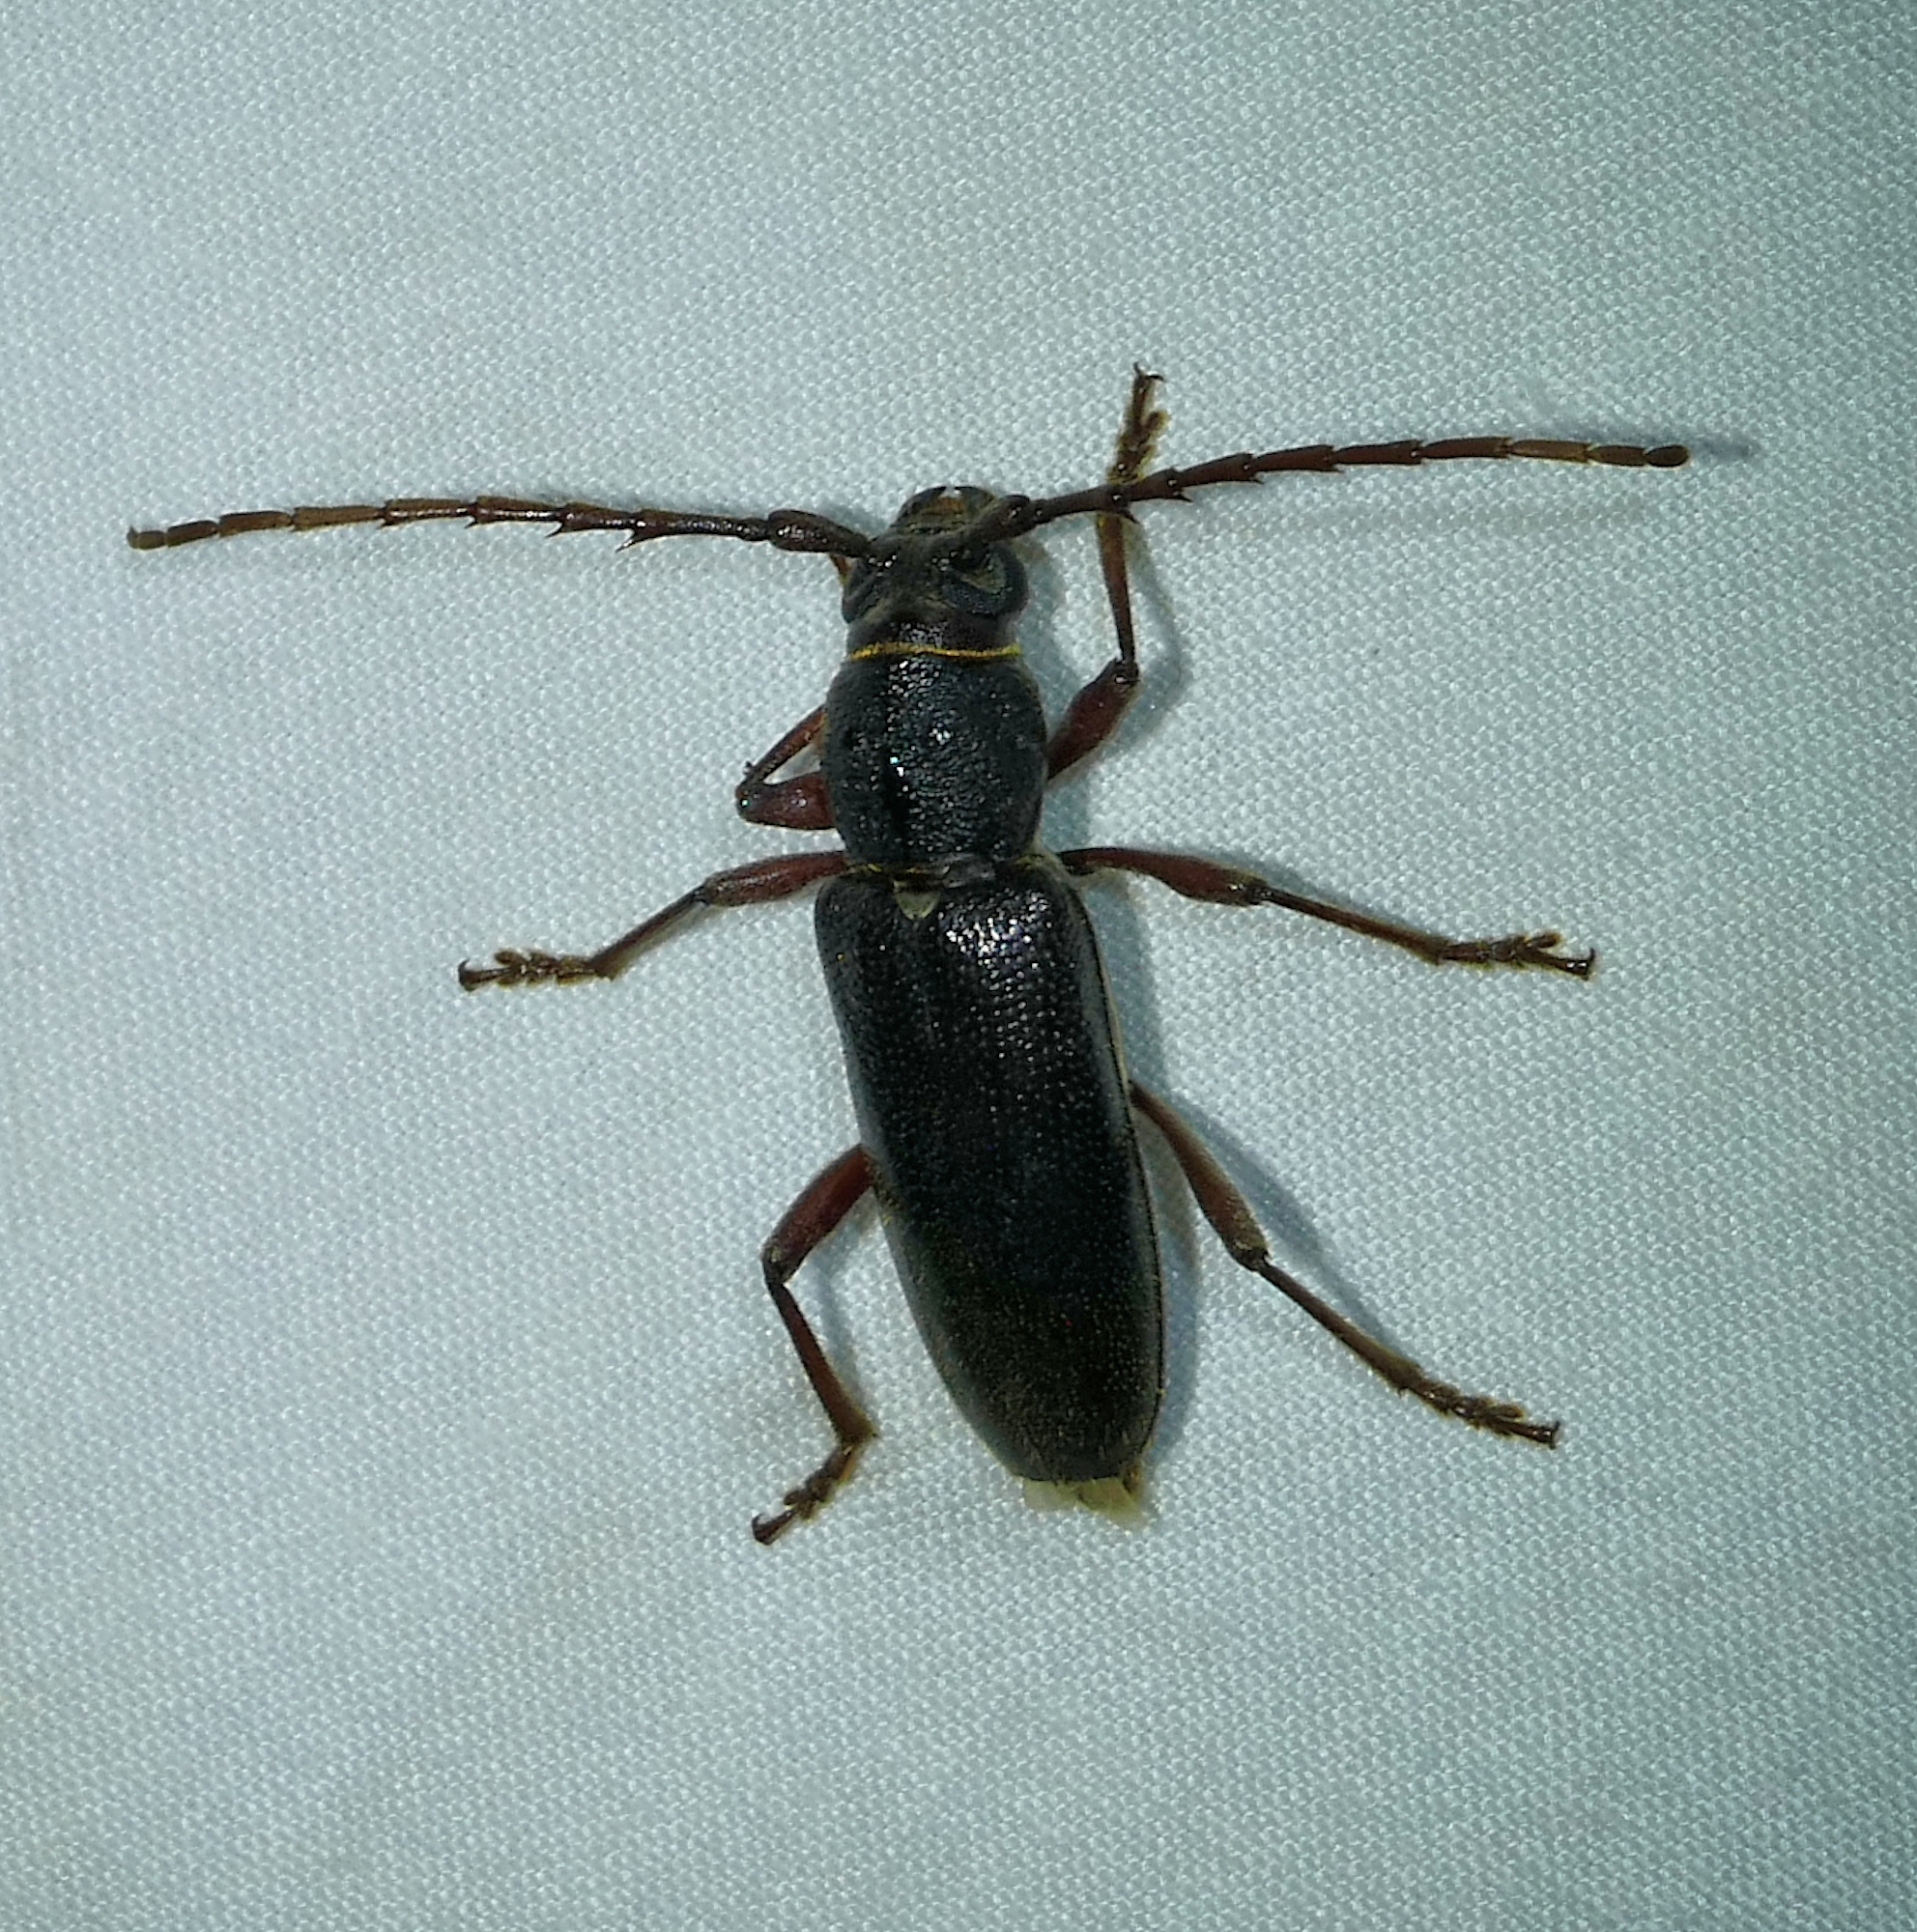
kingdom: Animalia
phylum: Arthropoda
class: Insecta
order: Coleoptera
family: Cerambycidae
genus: Enaphalodes
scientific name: Enaphalodes seminitidus
